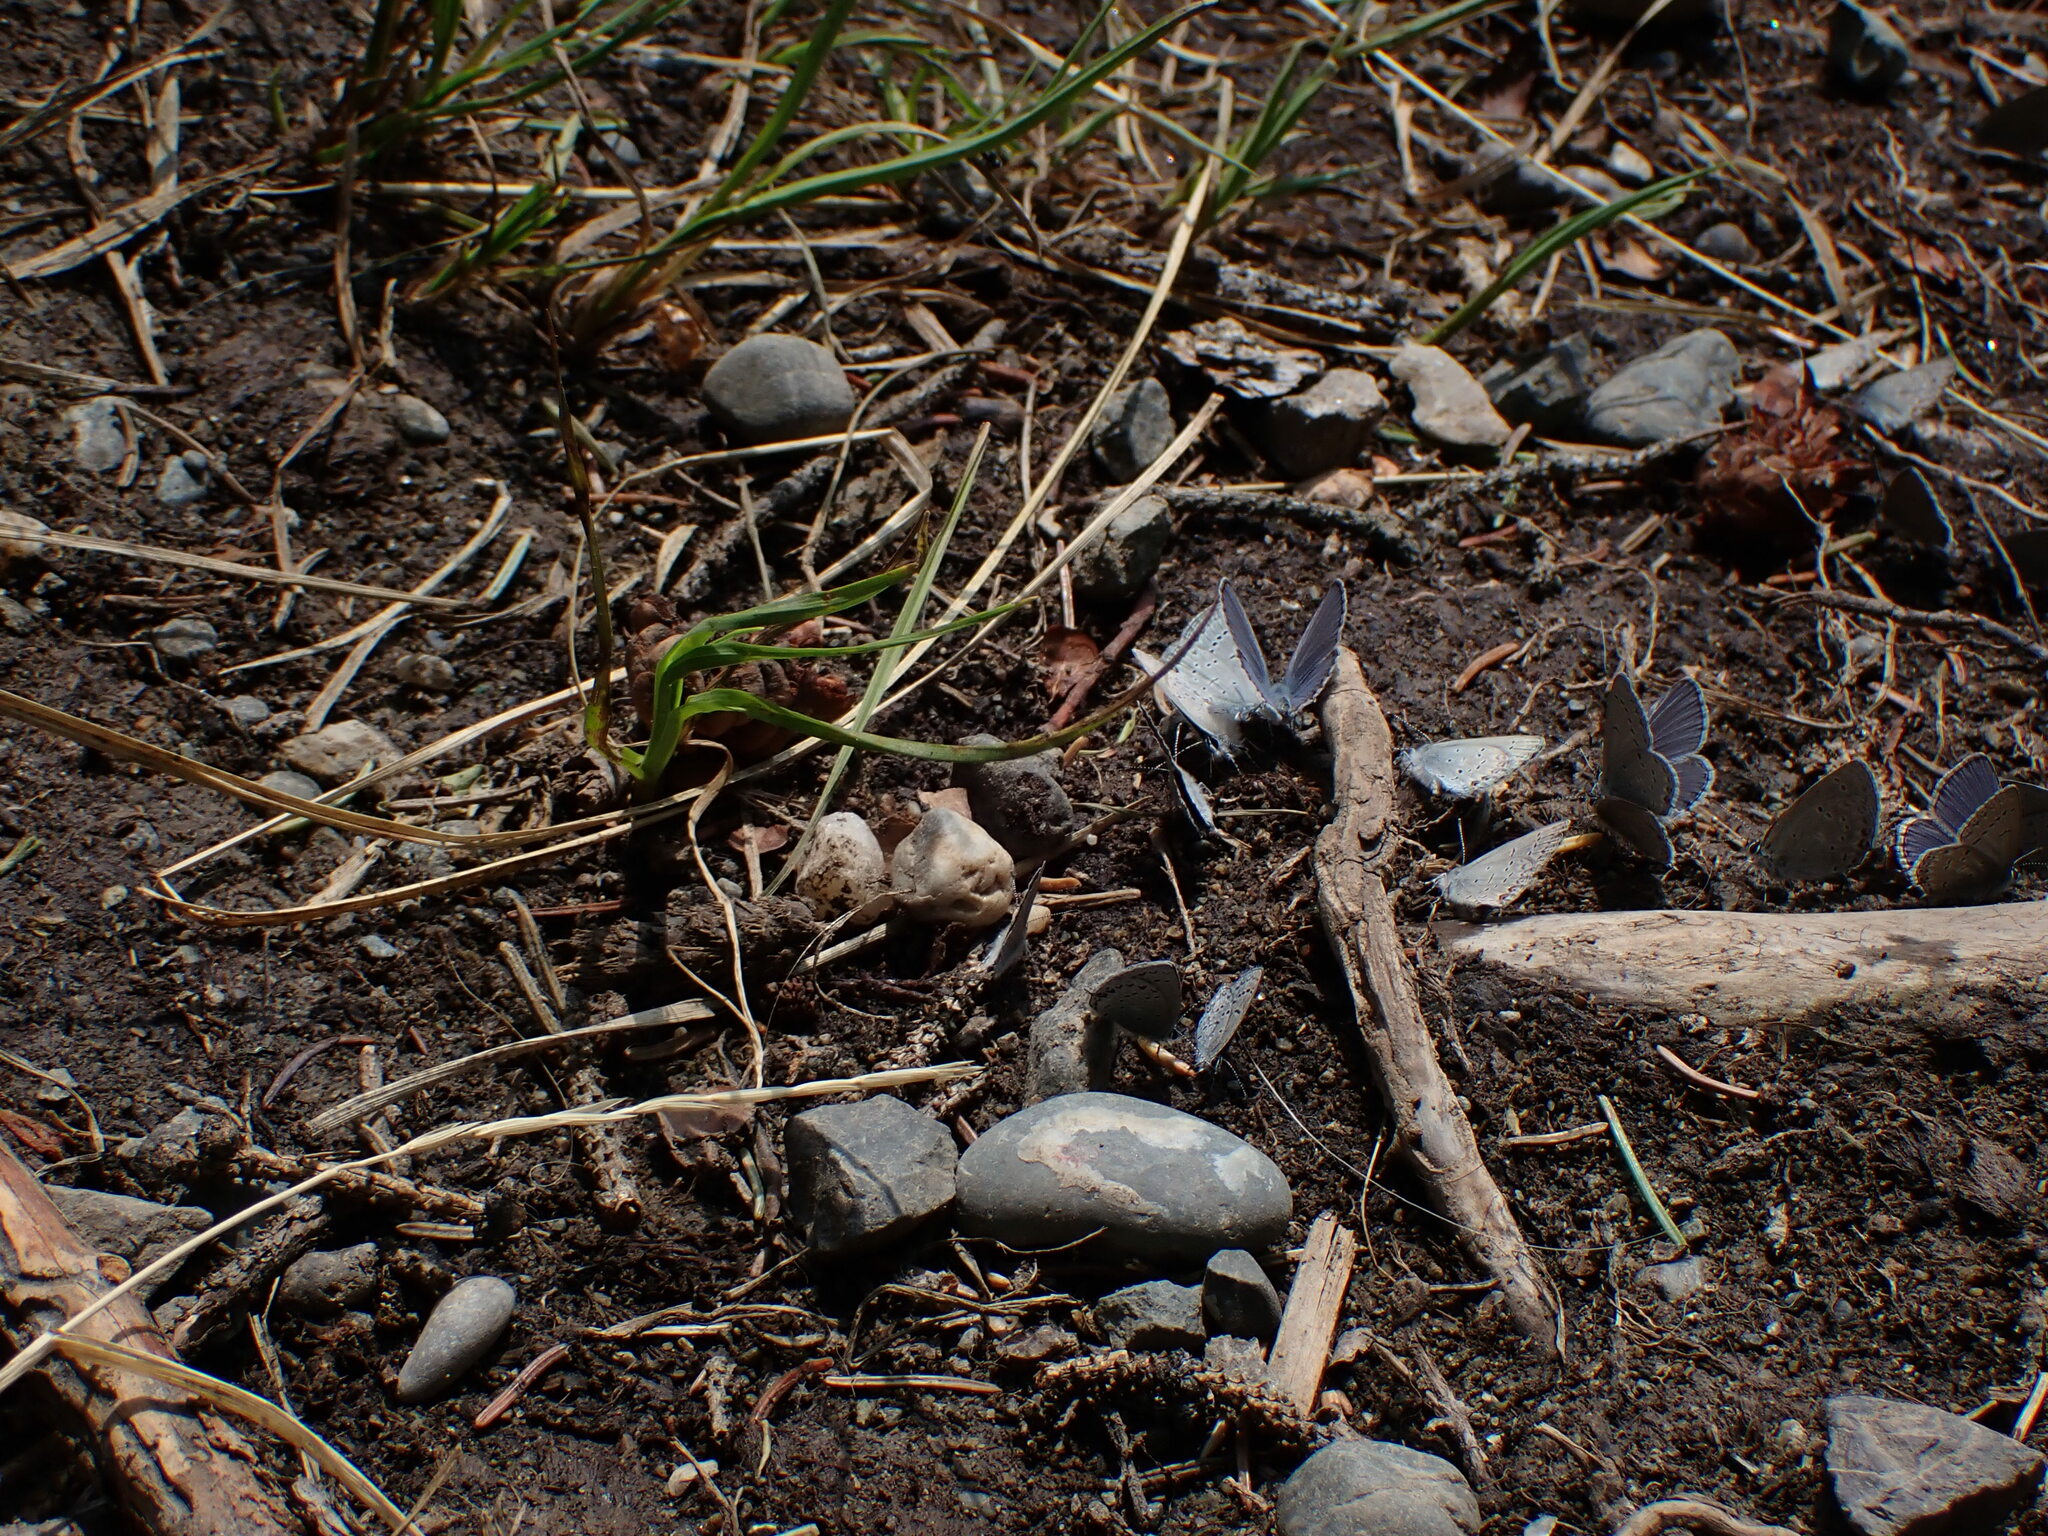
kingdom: Animalia
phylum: Arthropoda
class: Insecta
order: Lepidoptera
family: Lycaenidae
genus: Elkalyce
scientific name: Elkalyce amyntula
